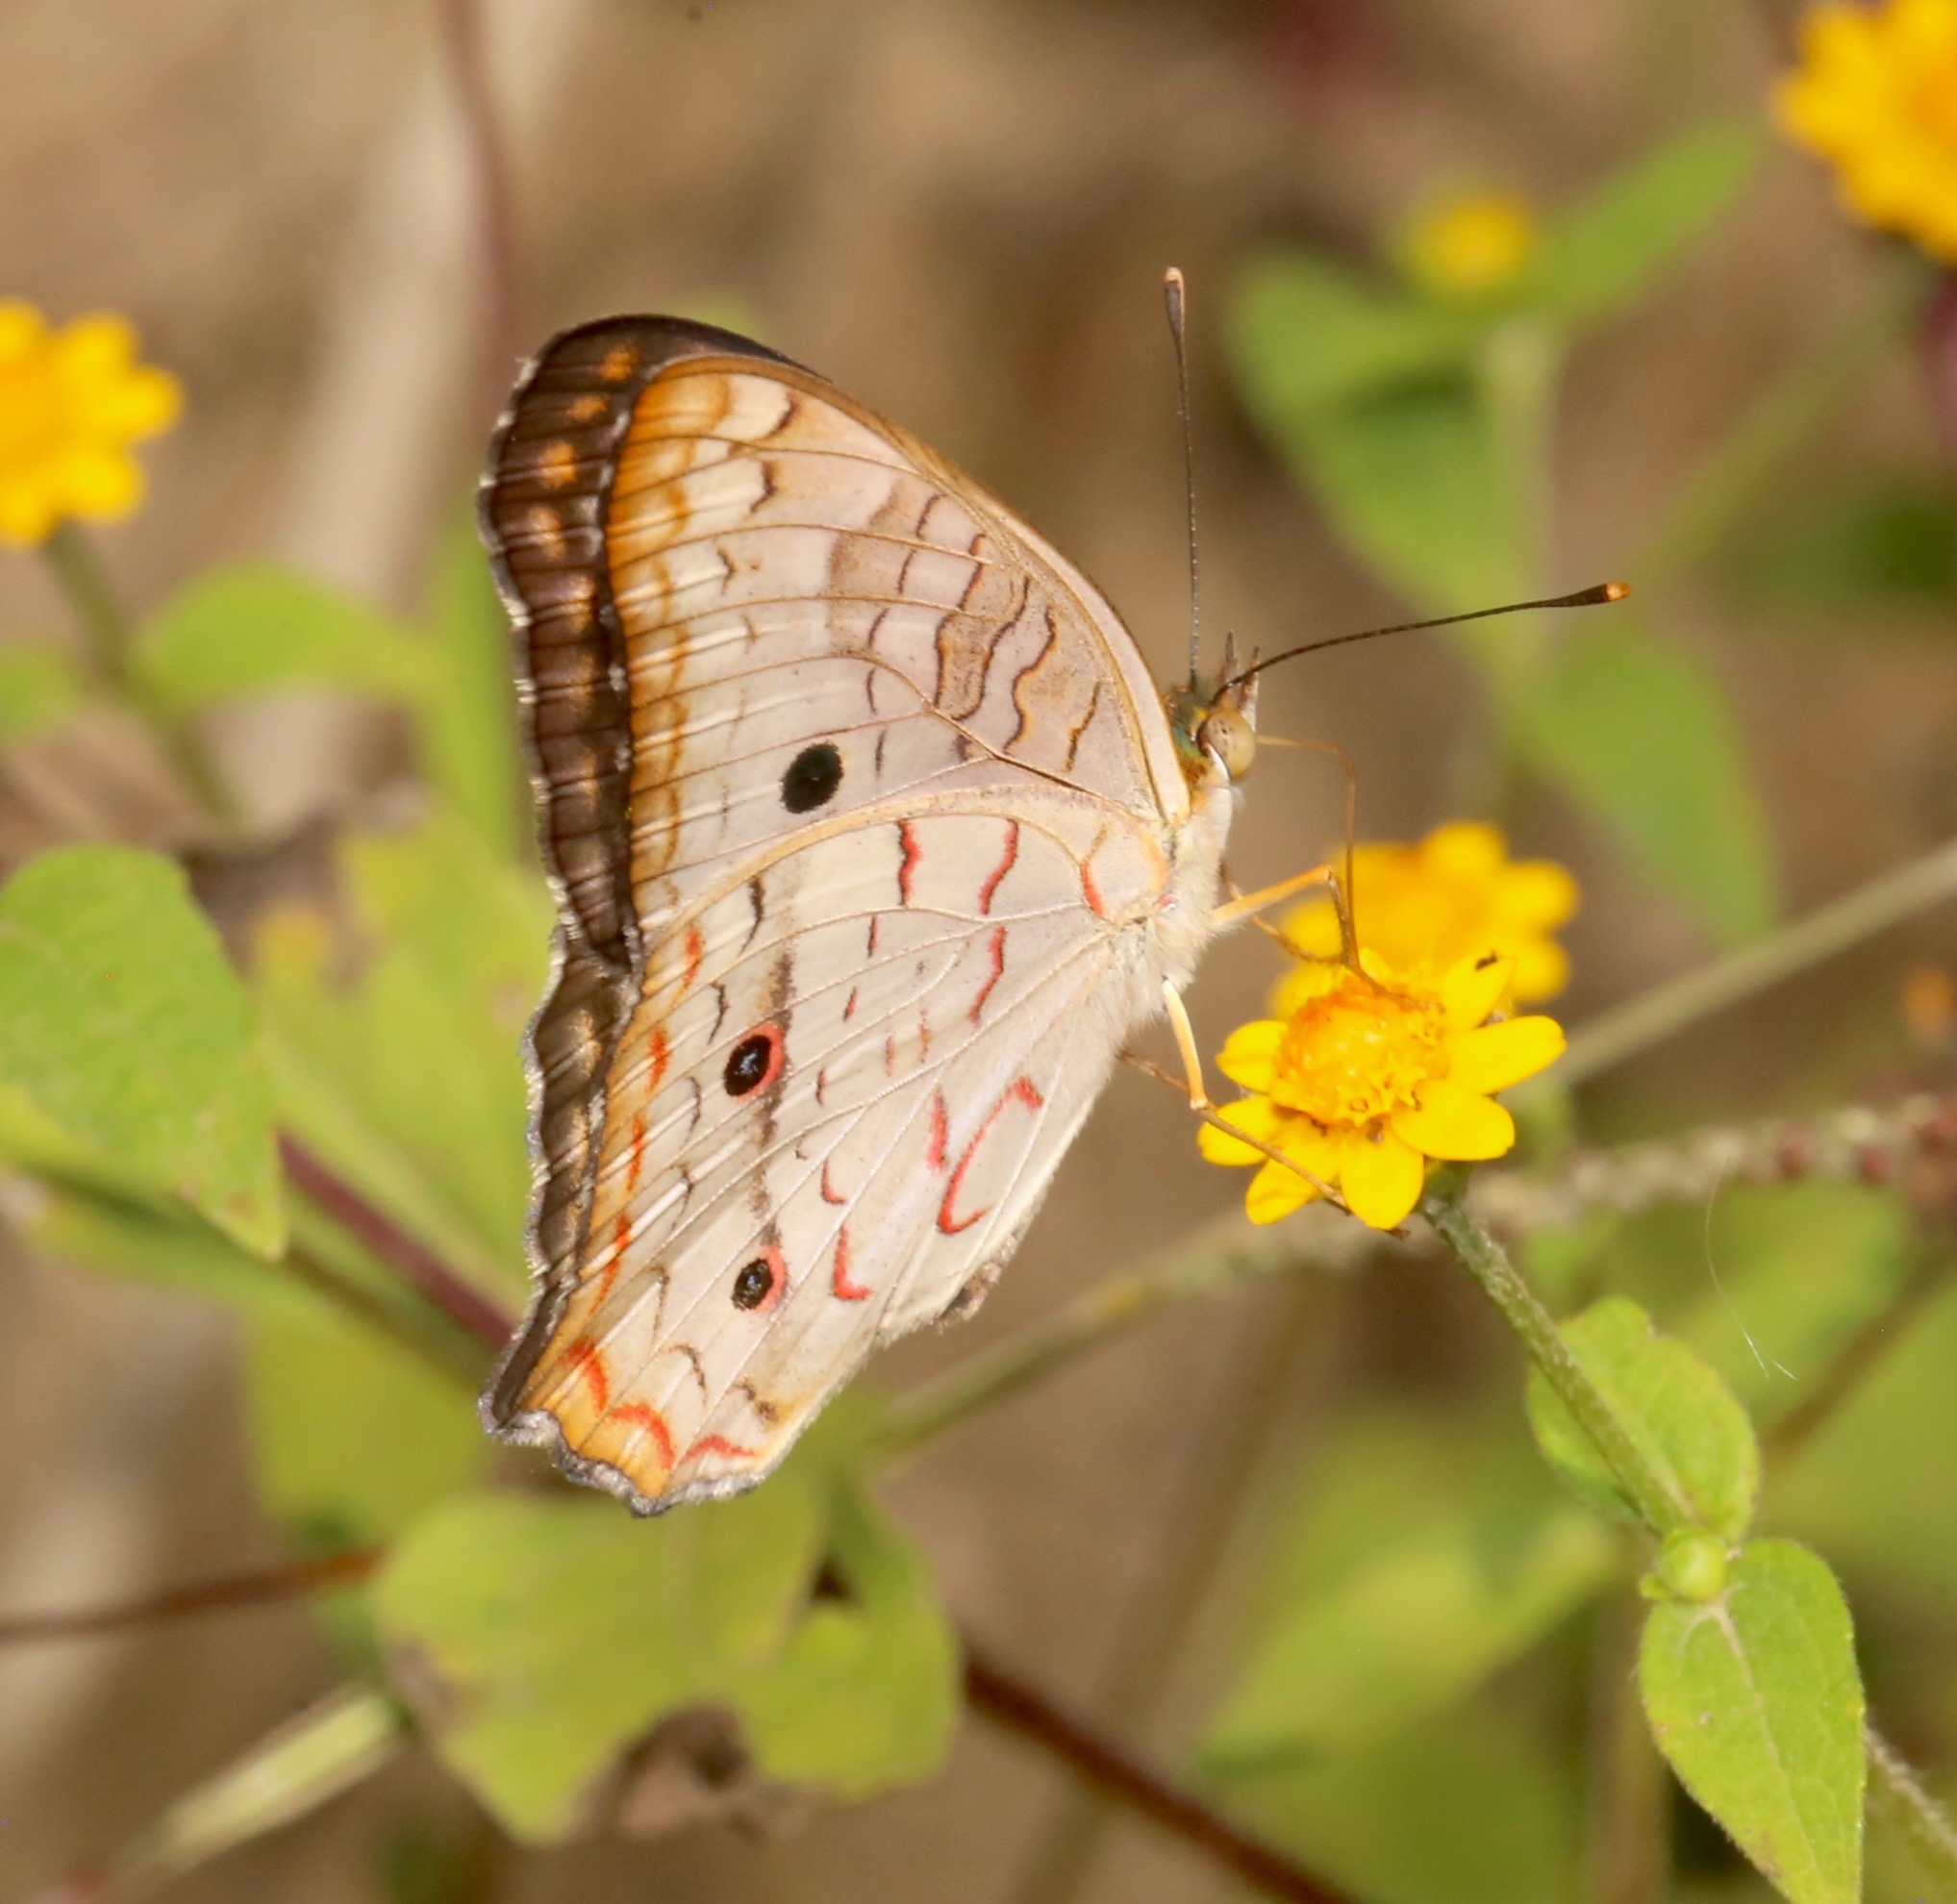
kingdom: Animalia
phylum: Arthropoda
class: Insecta
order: Lepidoptera
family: Nymphalidae
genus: Anartia
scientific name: Anartia jatrophae
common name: White peacock
